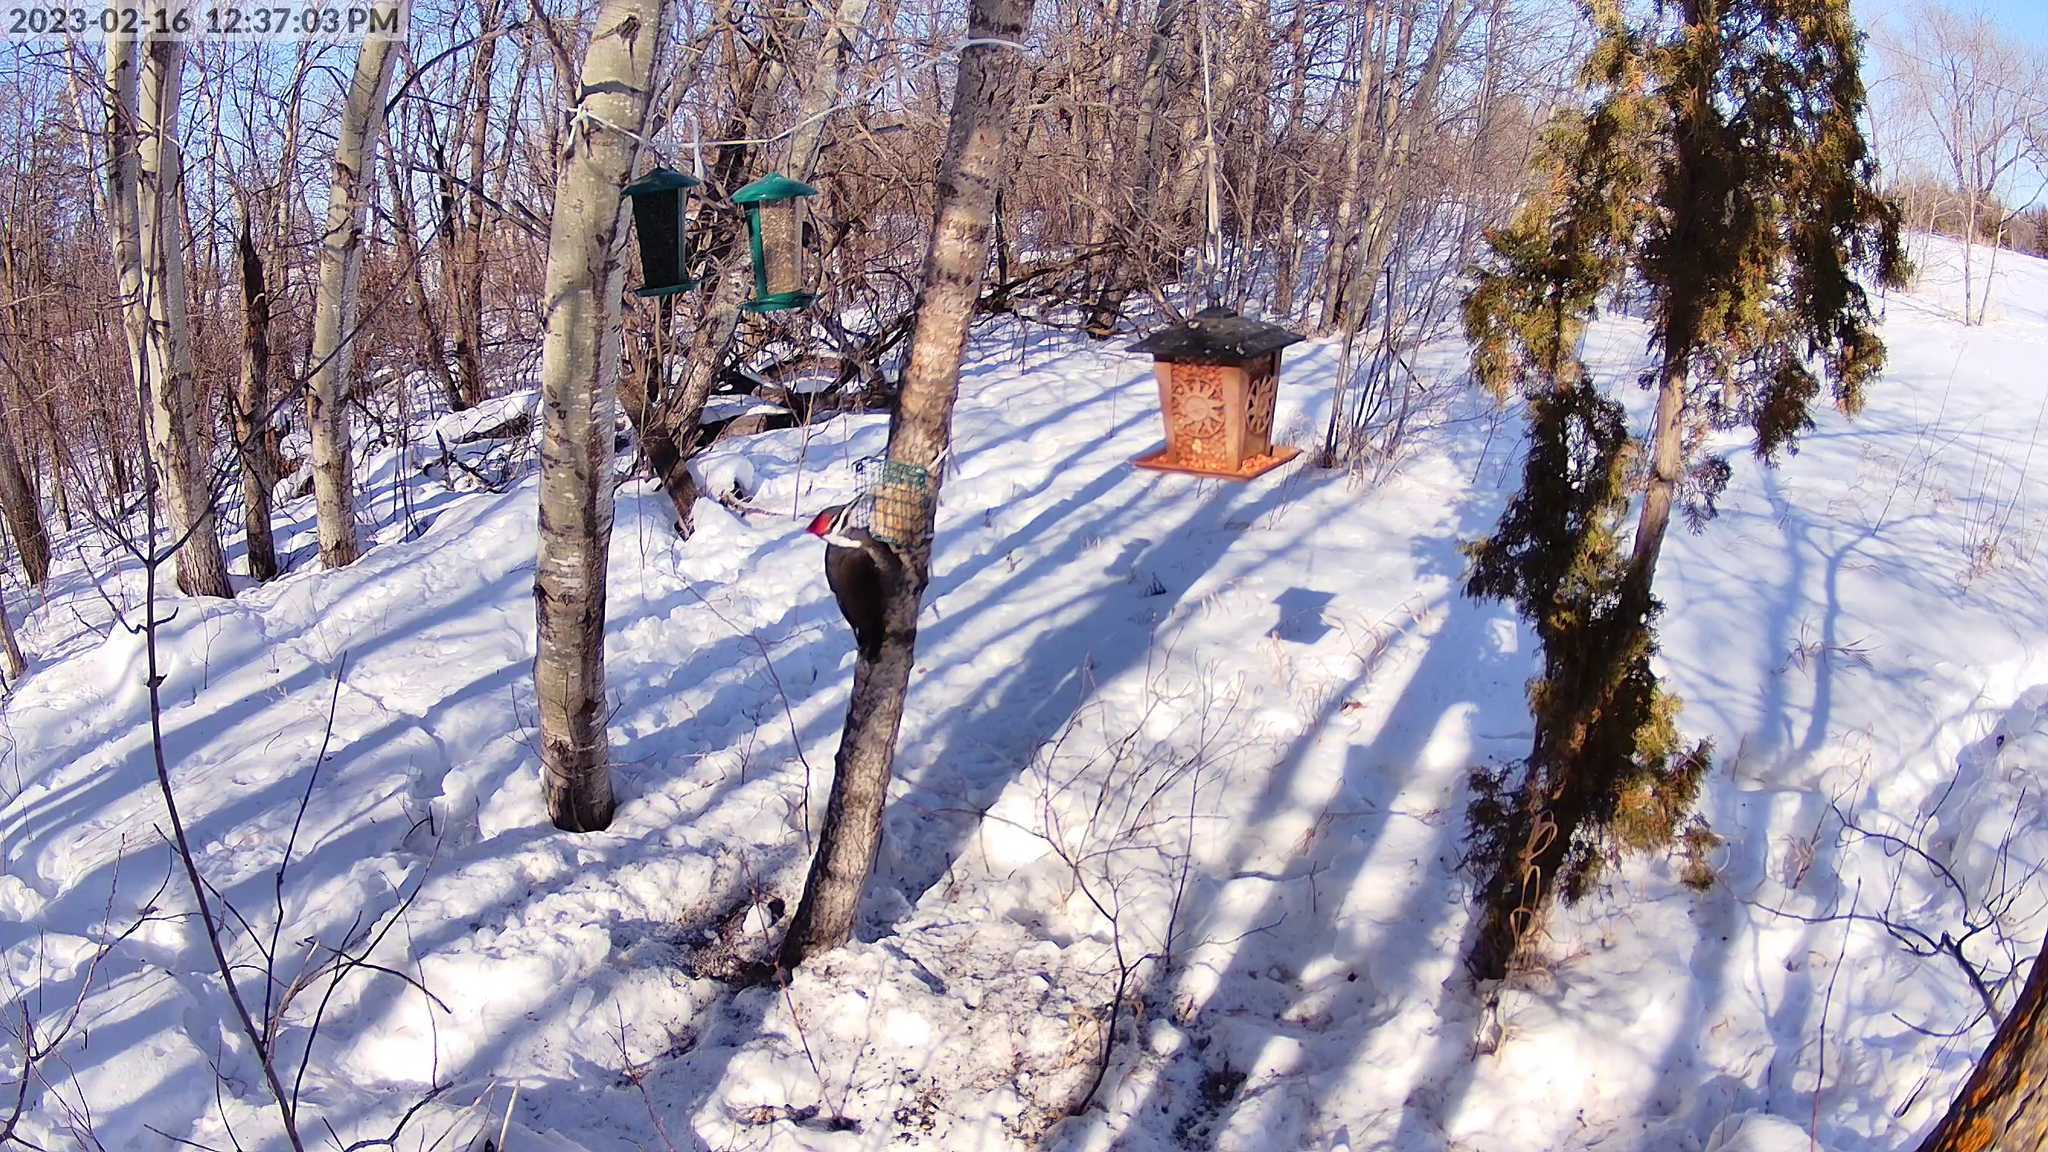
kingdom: Animalia
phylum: Chordata
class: Aves
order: Piciformes
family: Picidae
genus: Dryocopus
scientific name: Dryocopus pileatus
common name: Pileated woodpecker
